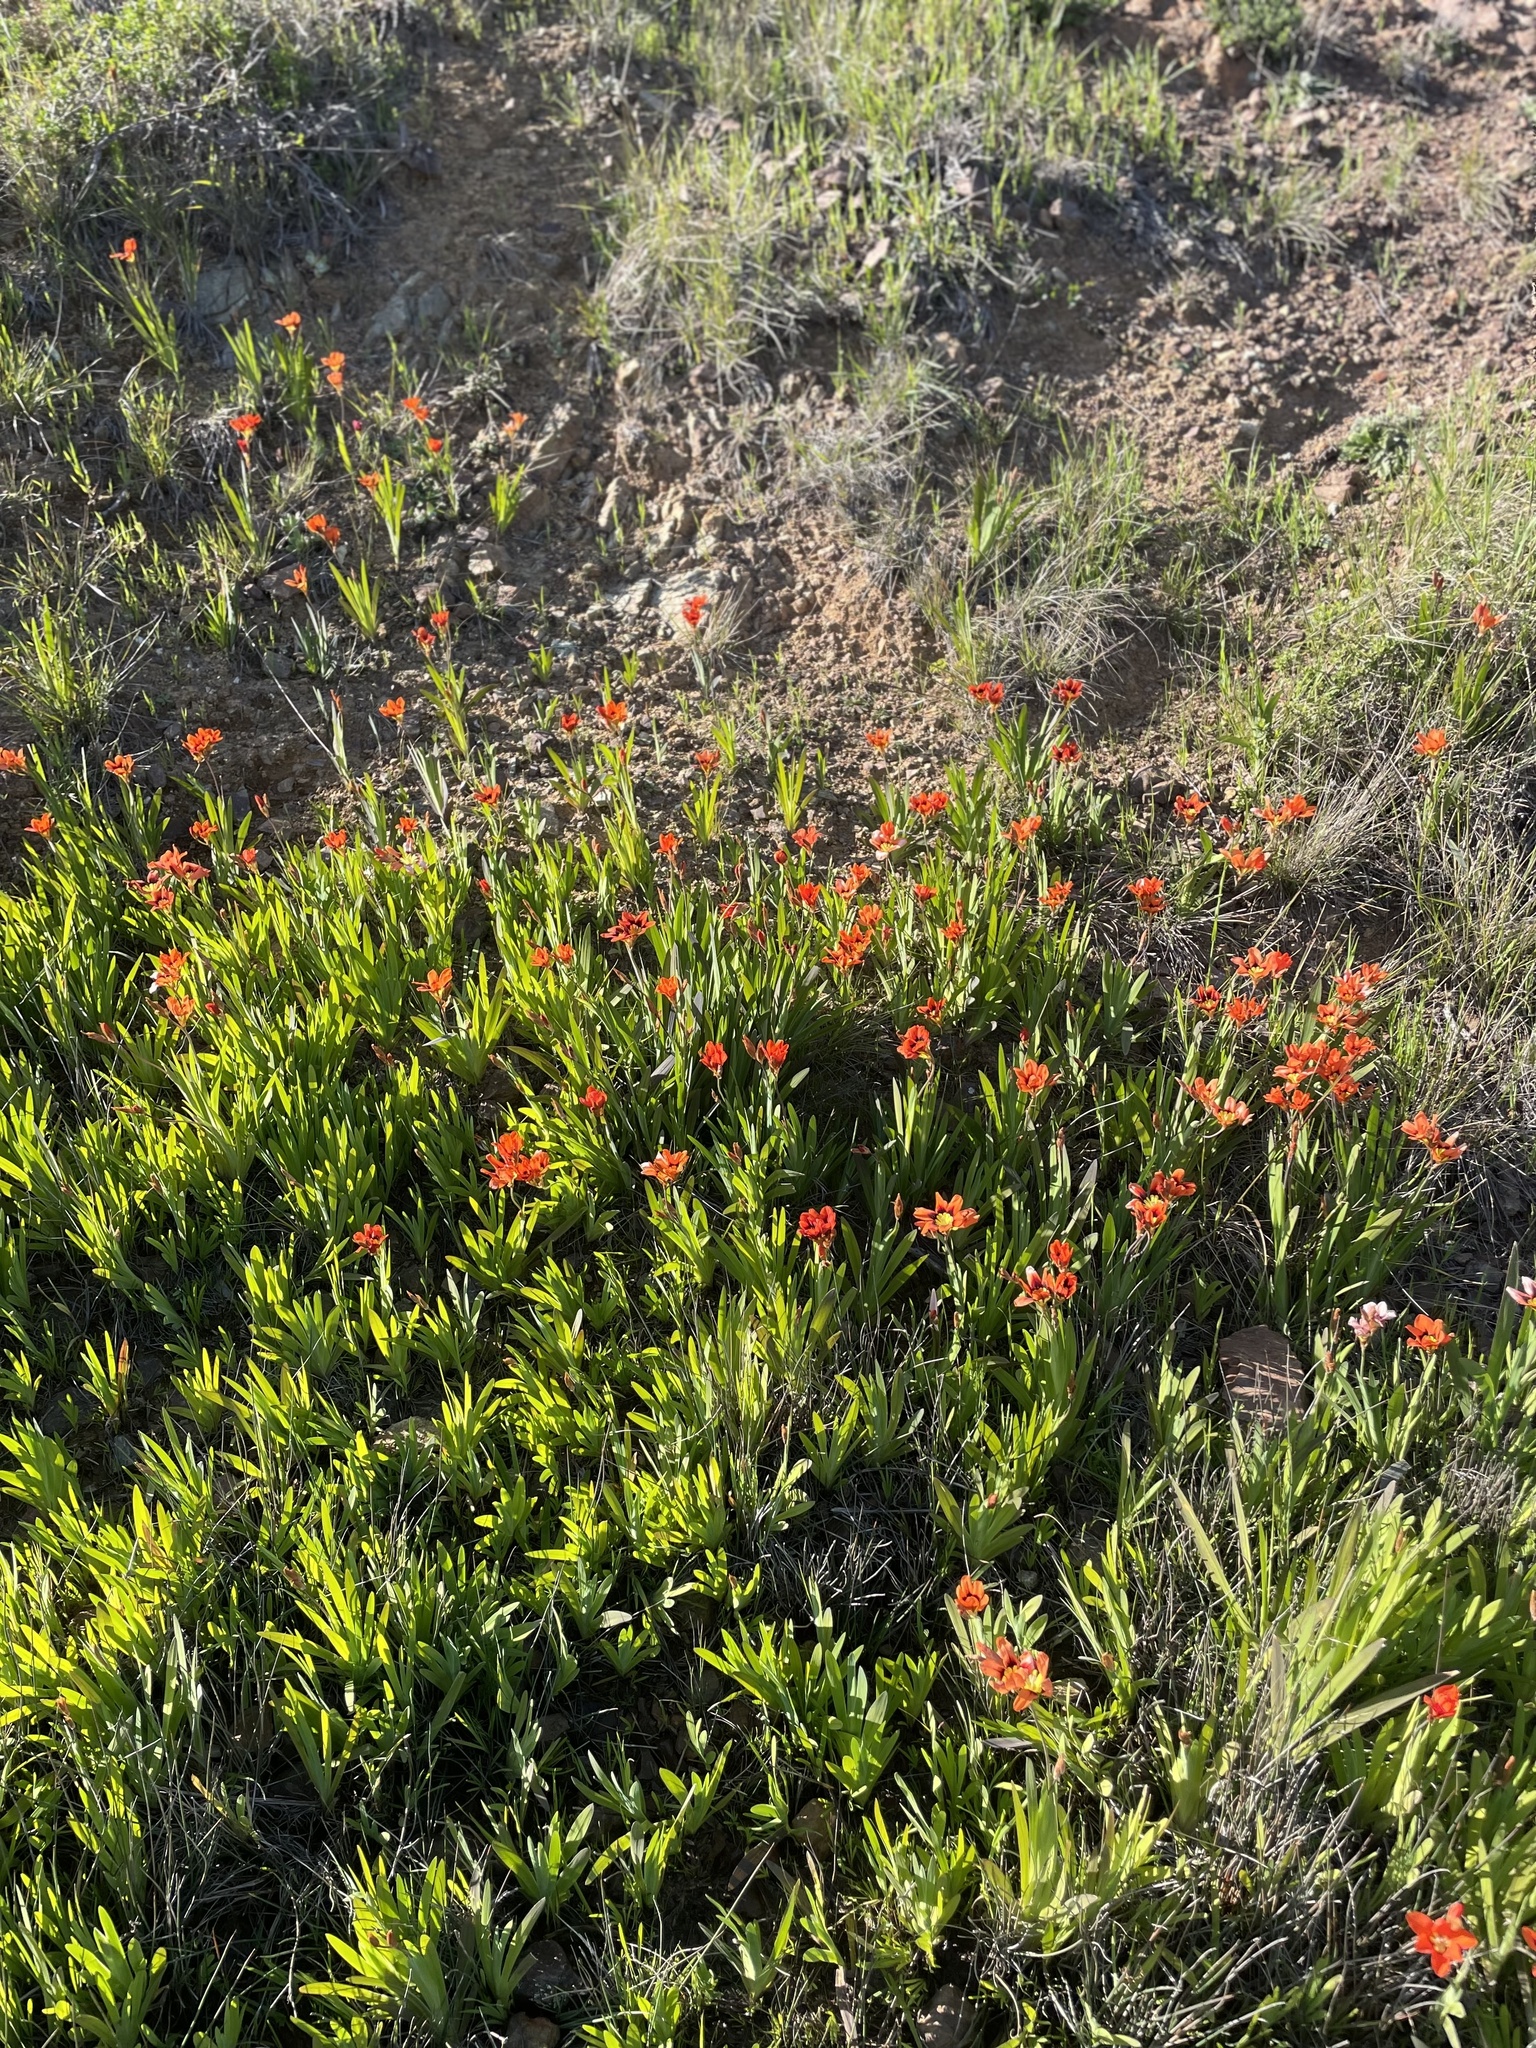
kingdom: Plantae
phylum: Tracheophyta
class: Liliopsida
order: Asparagales
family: Iridaceae
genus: Sparaxis
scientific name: Sparaxis tricolor
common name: Wandflower
